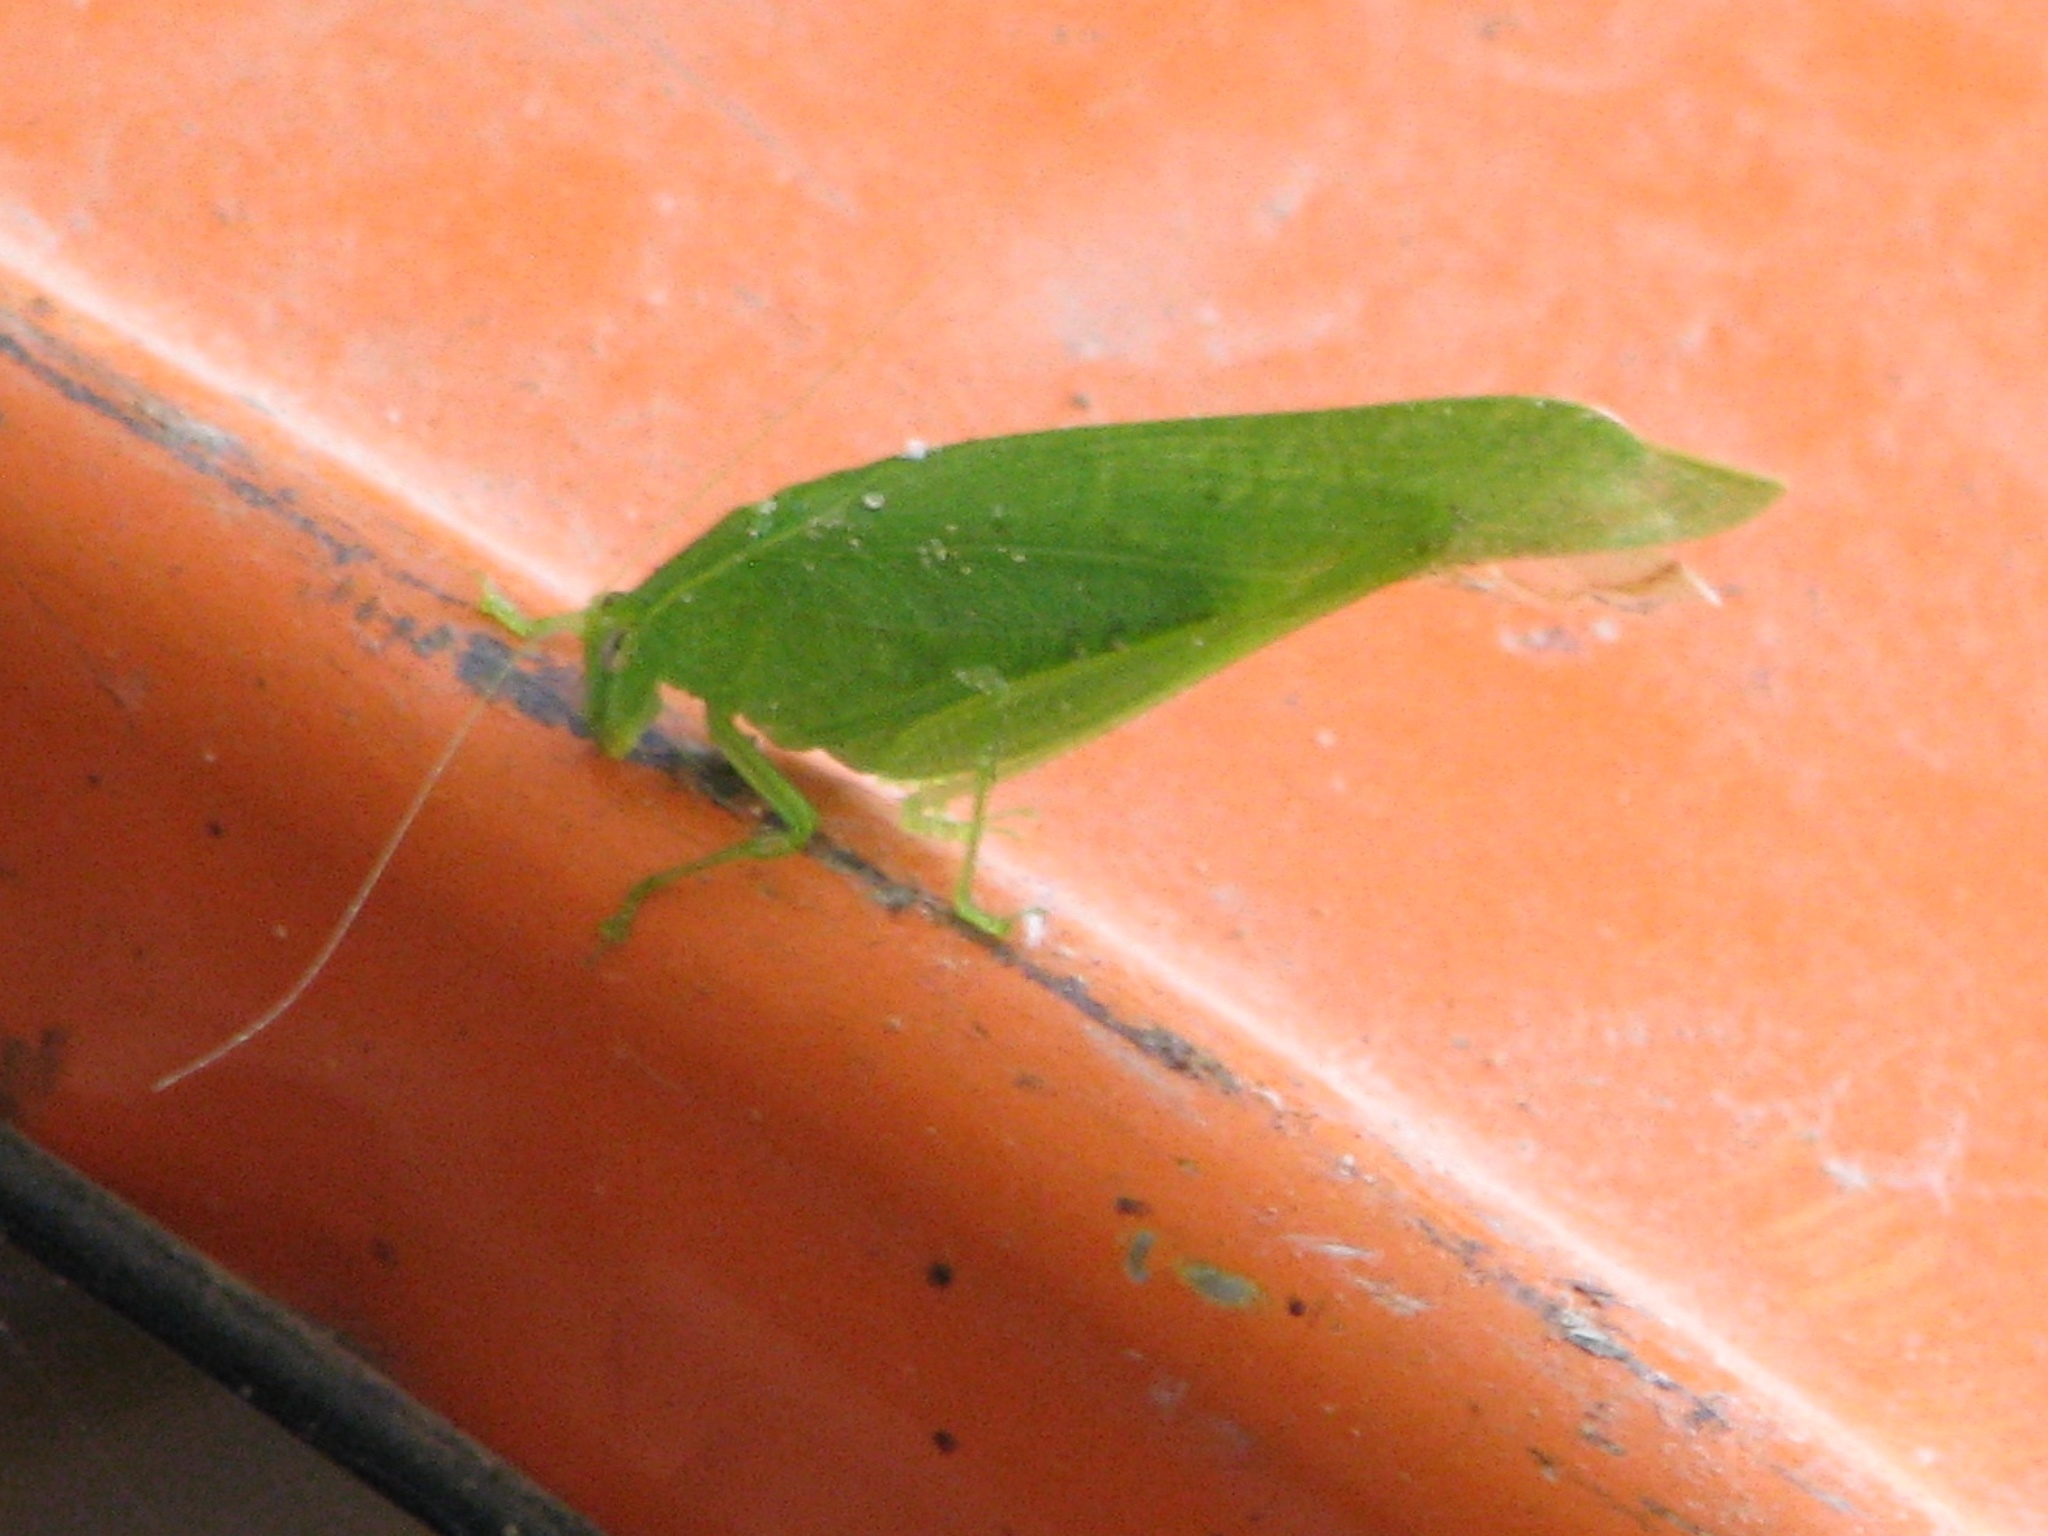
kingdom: Animalia
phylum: Arthropoda
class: Insecta
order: Orthoptera
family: Tettigoniidae
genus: Montezumina
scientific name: Montezumina modesta
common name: Modest katydid
